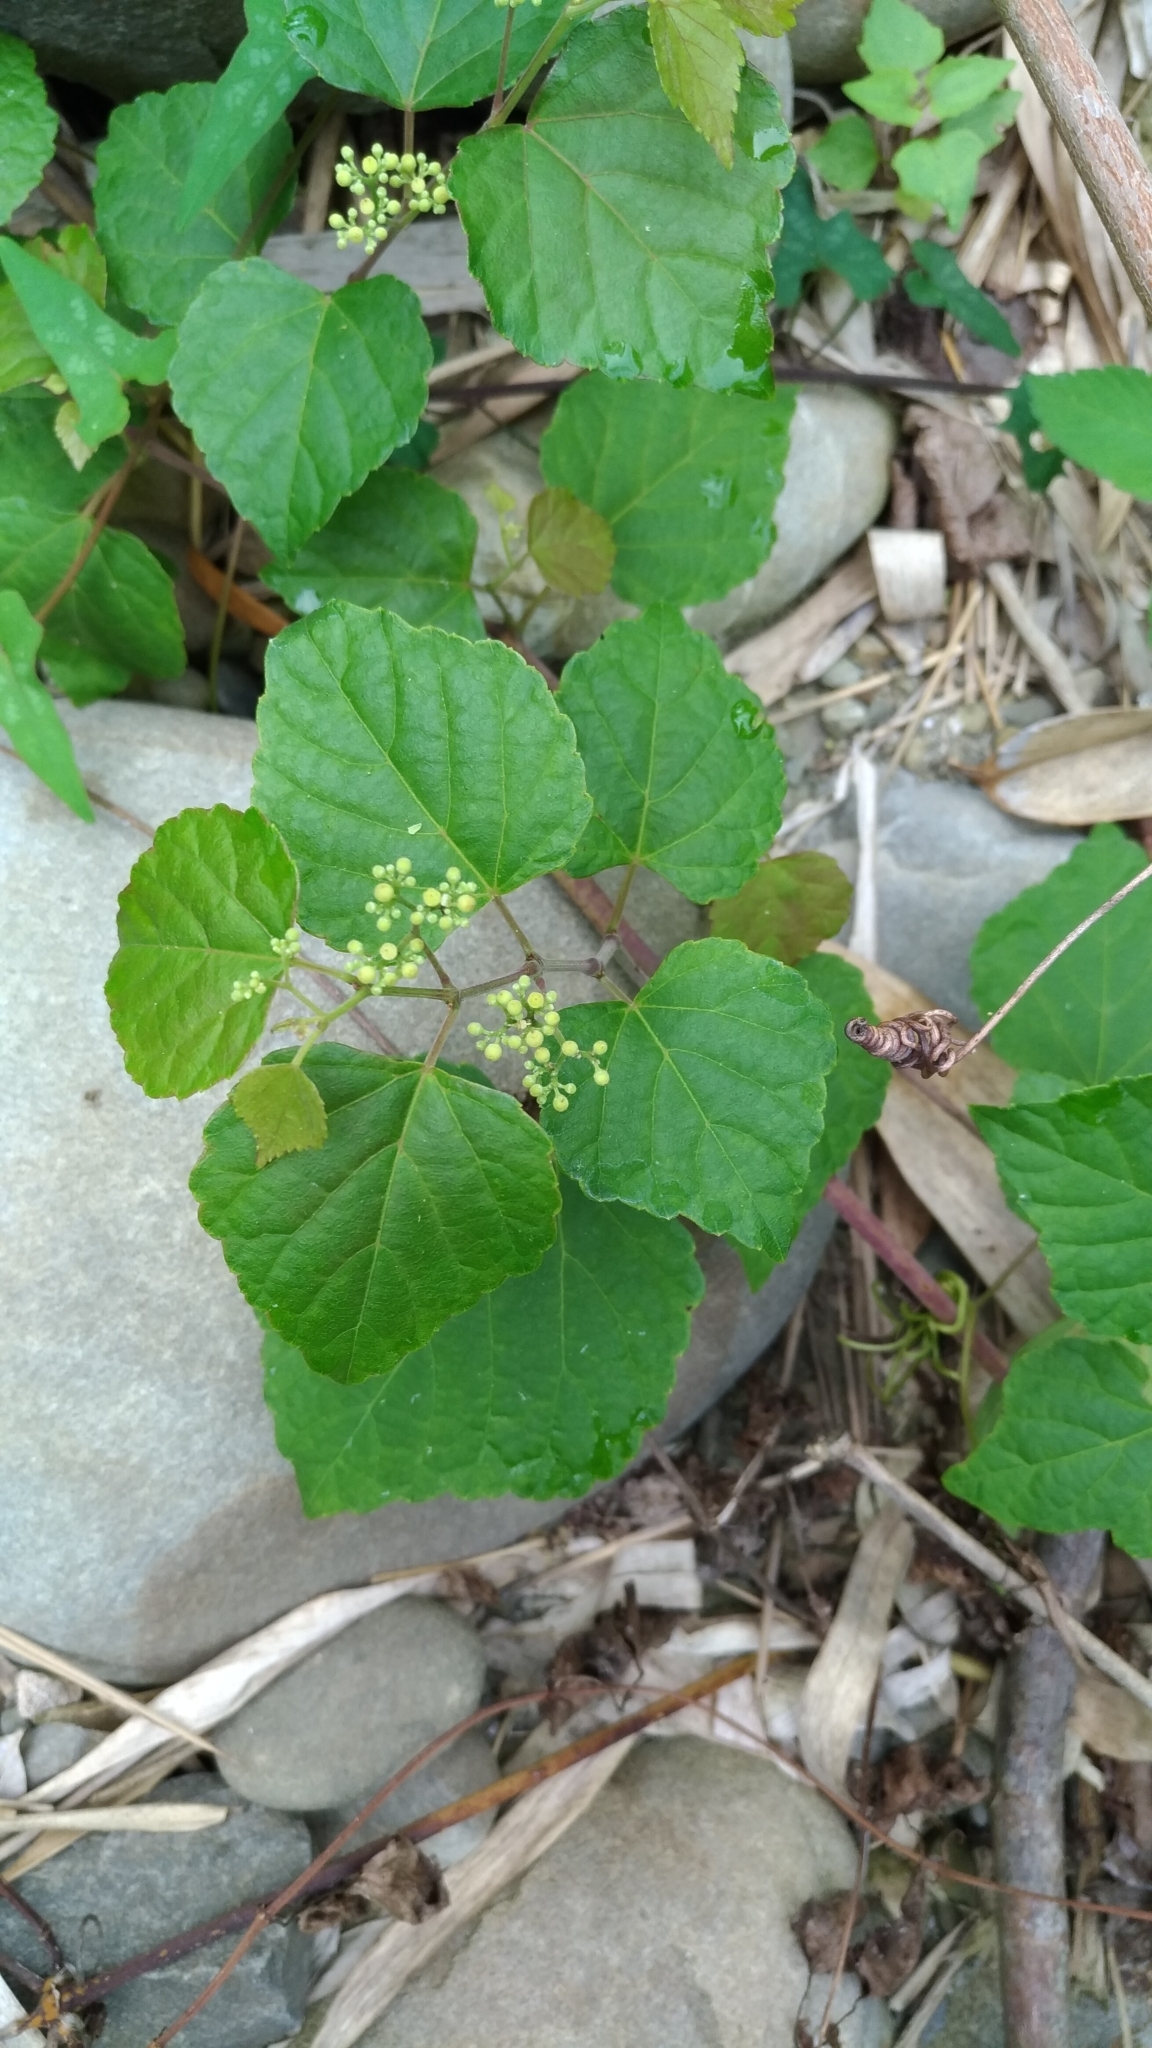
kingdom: Plantae
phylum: Tracheophyta
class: Magnoliopsida
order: Vitales
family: Vitaceae
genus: Ampelopsis
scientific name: Ampelopsis glandulosa
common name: Amur peppervine
